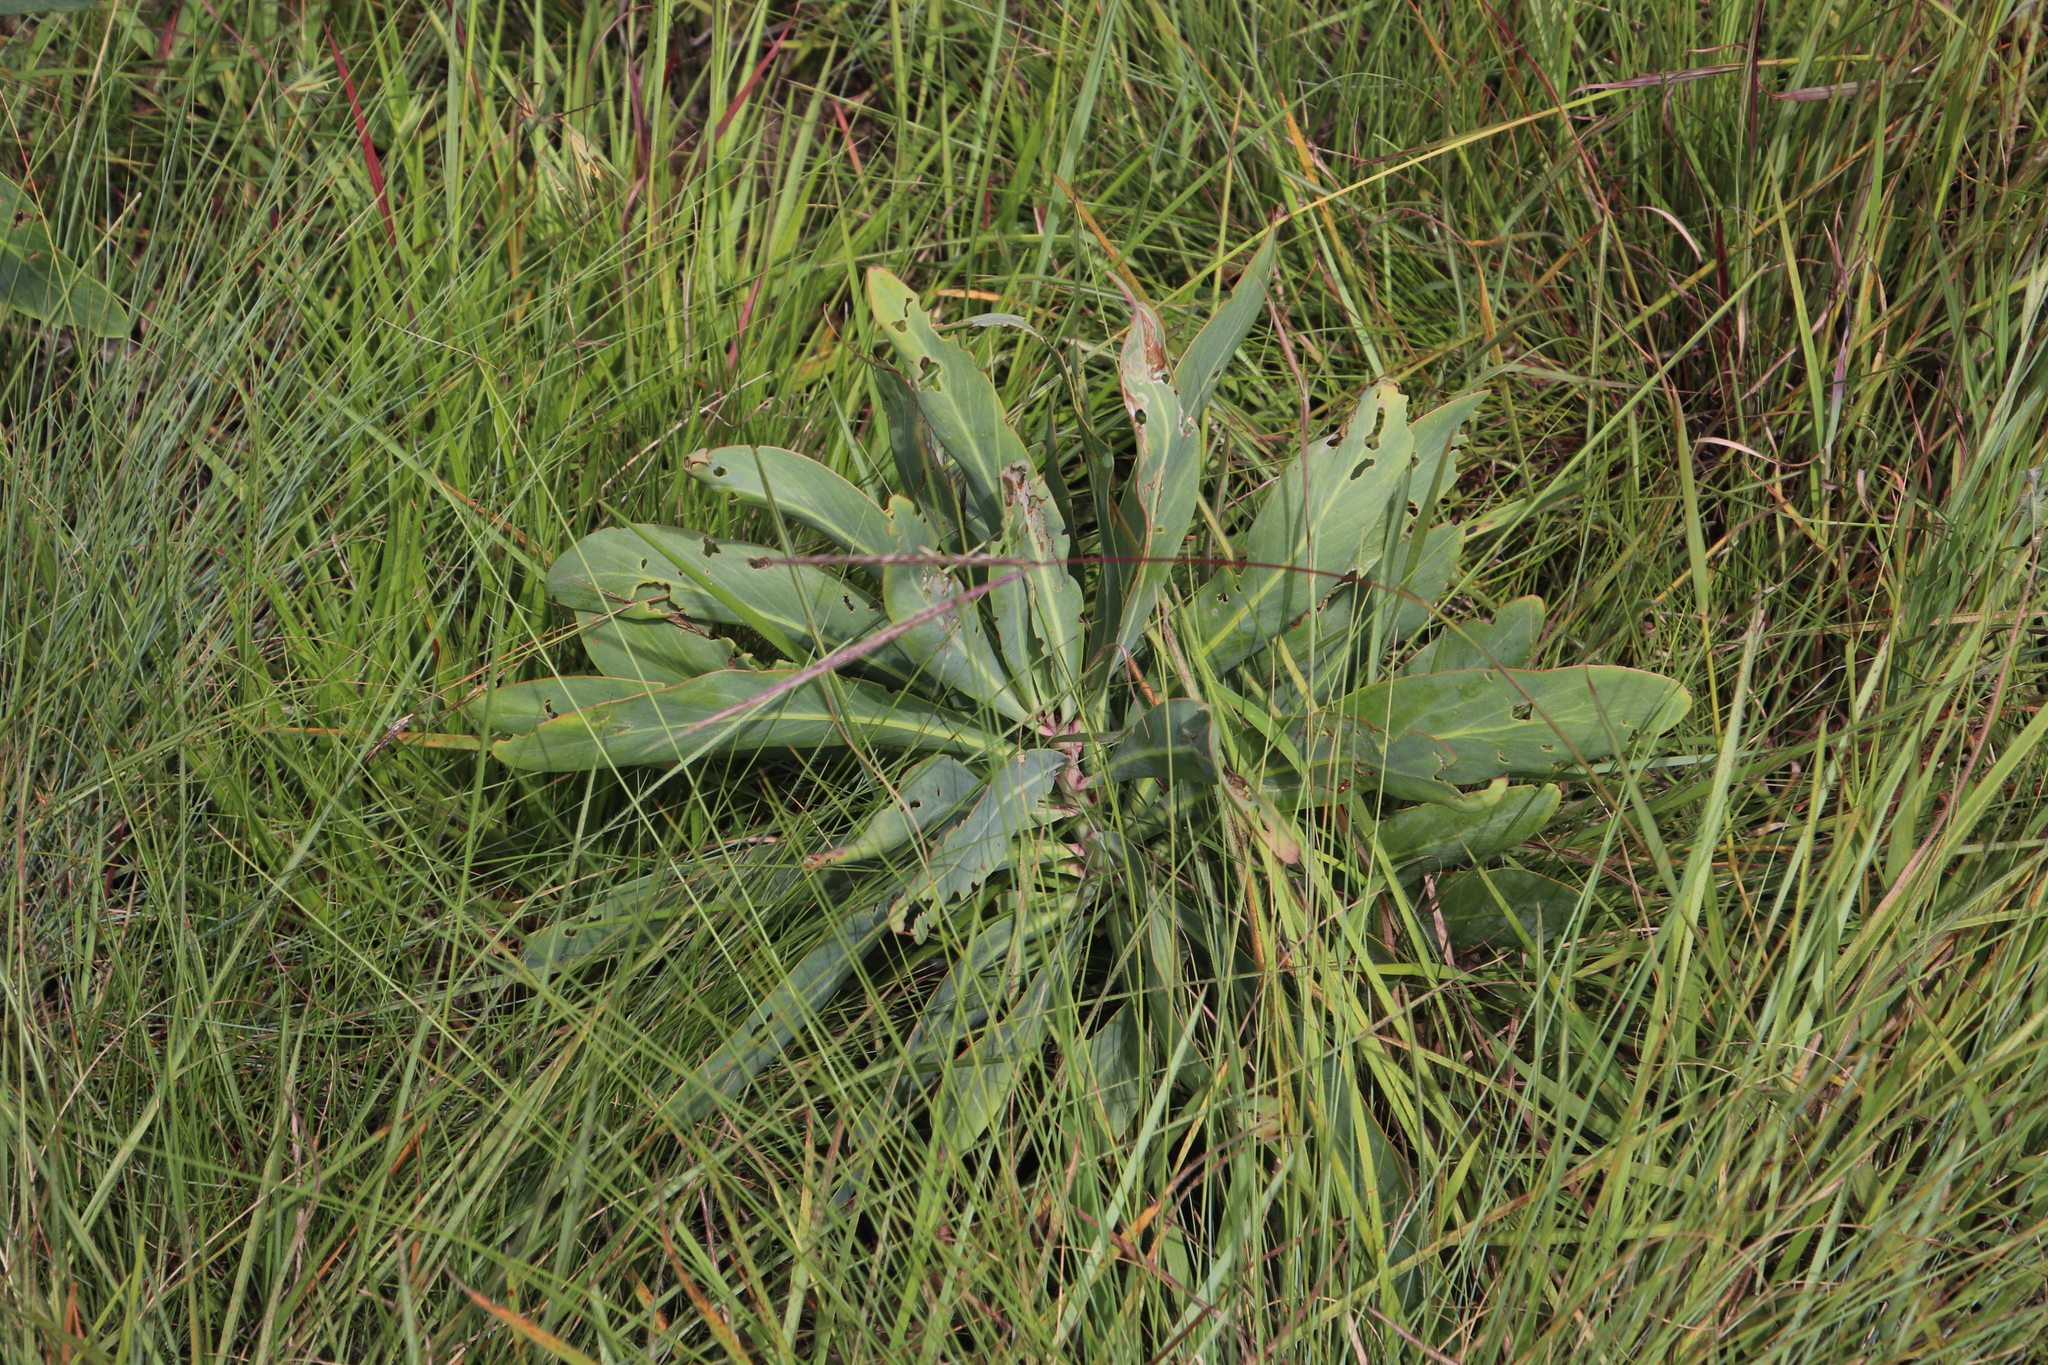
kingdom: Plantae
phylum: Tracheophyta
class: Magnoliopsida
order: Proteales
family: Proteaceae
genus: Protea
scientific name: Protea caffra
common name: Common sugarbush
